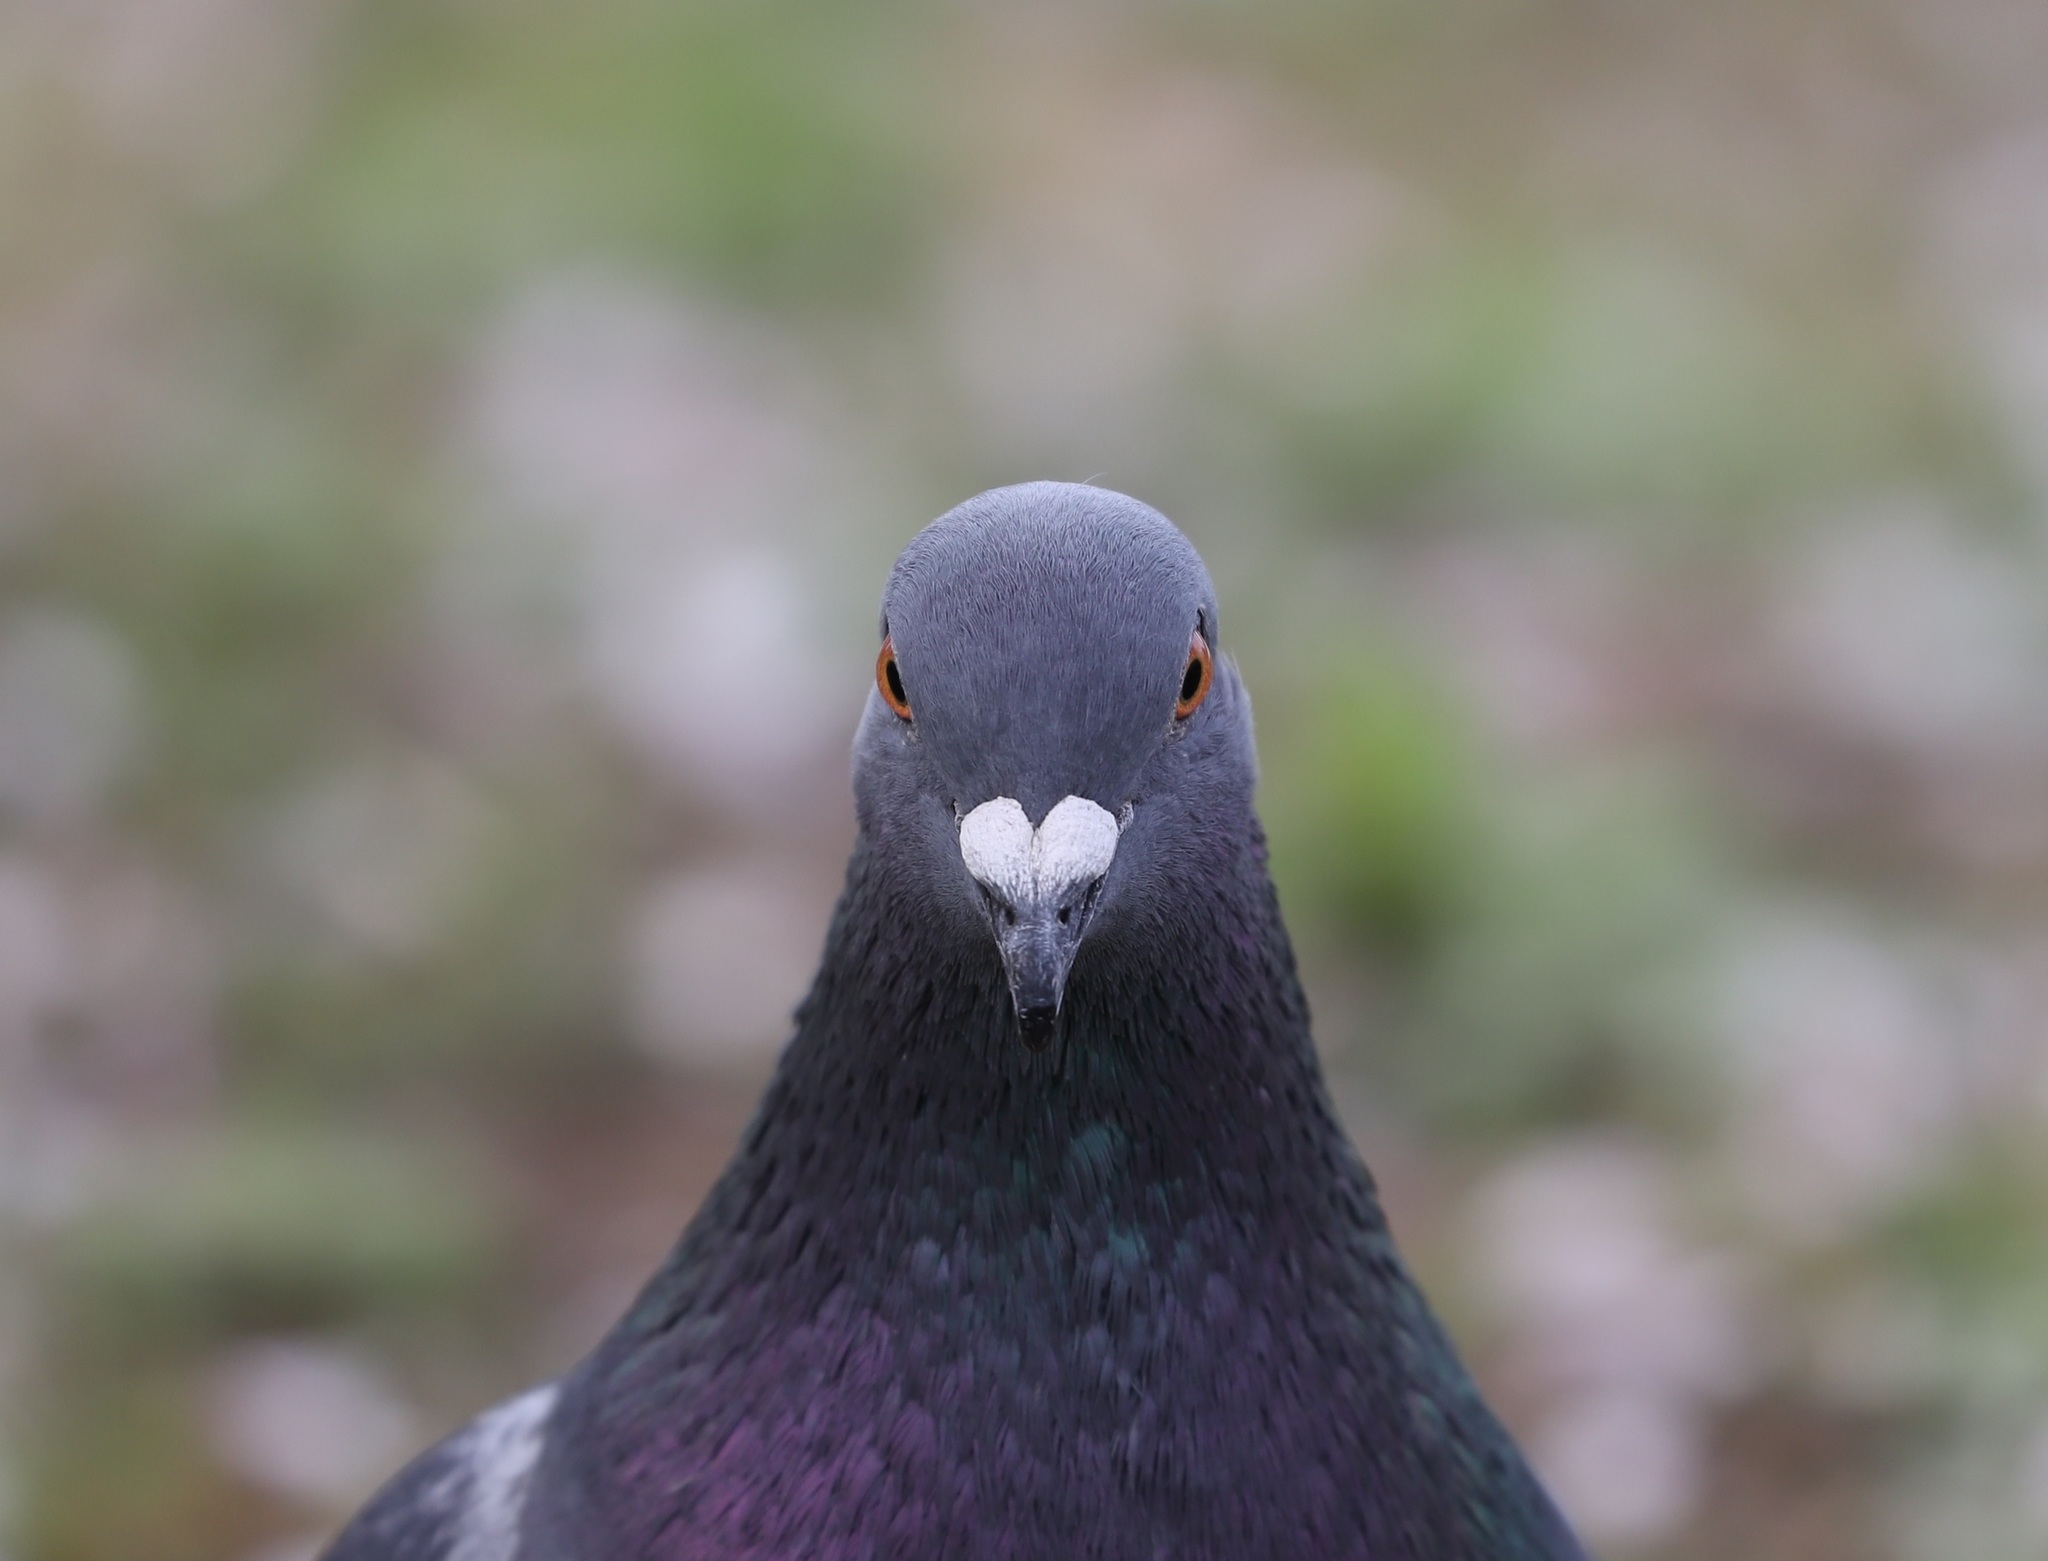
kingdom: Animalia
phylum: Chordata
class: Aves
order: Columbiformes
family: Columbidae
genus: Columba
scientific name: Columba livia
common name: Rock pigeon
